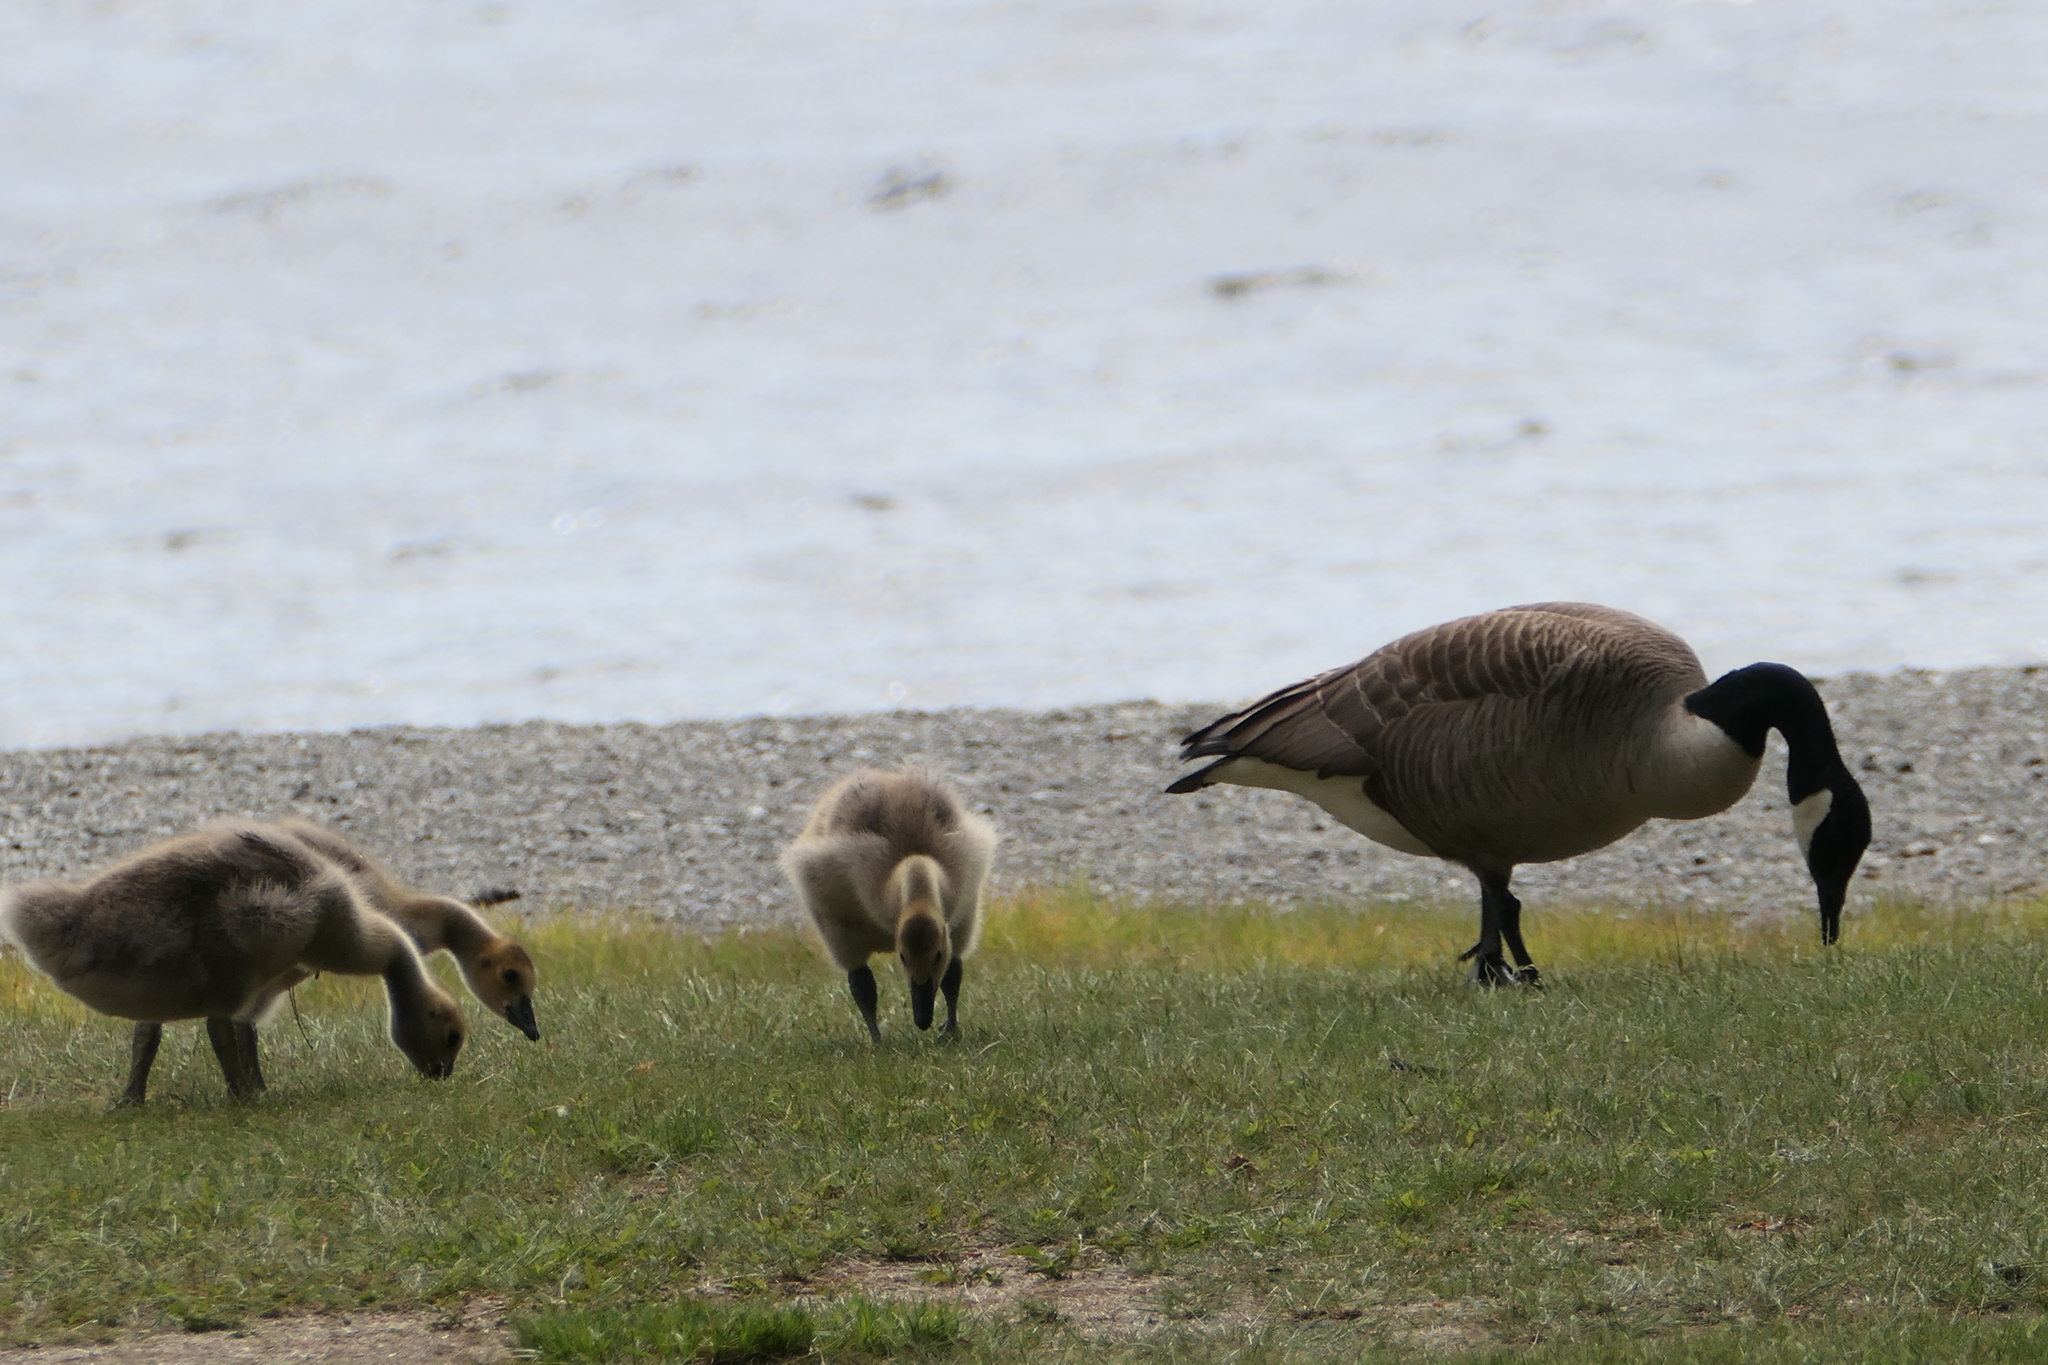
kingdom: Animalia
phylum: Chordata
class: Aves
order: Anseriformes
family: Anatidae
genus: Branta
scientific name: Branta canadensis
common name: Canada goose
